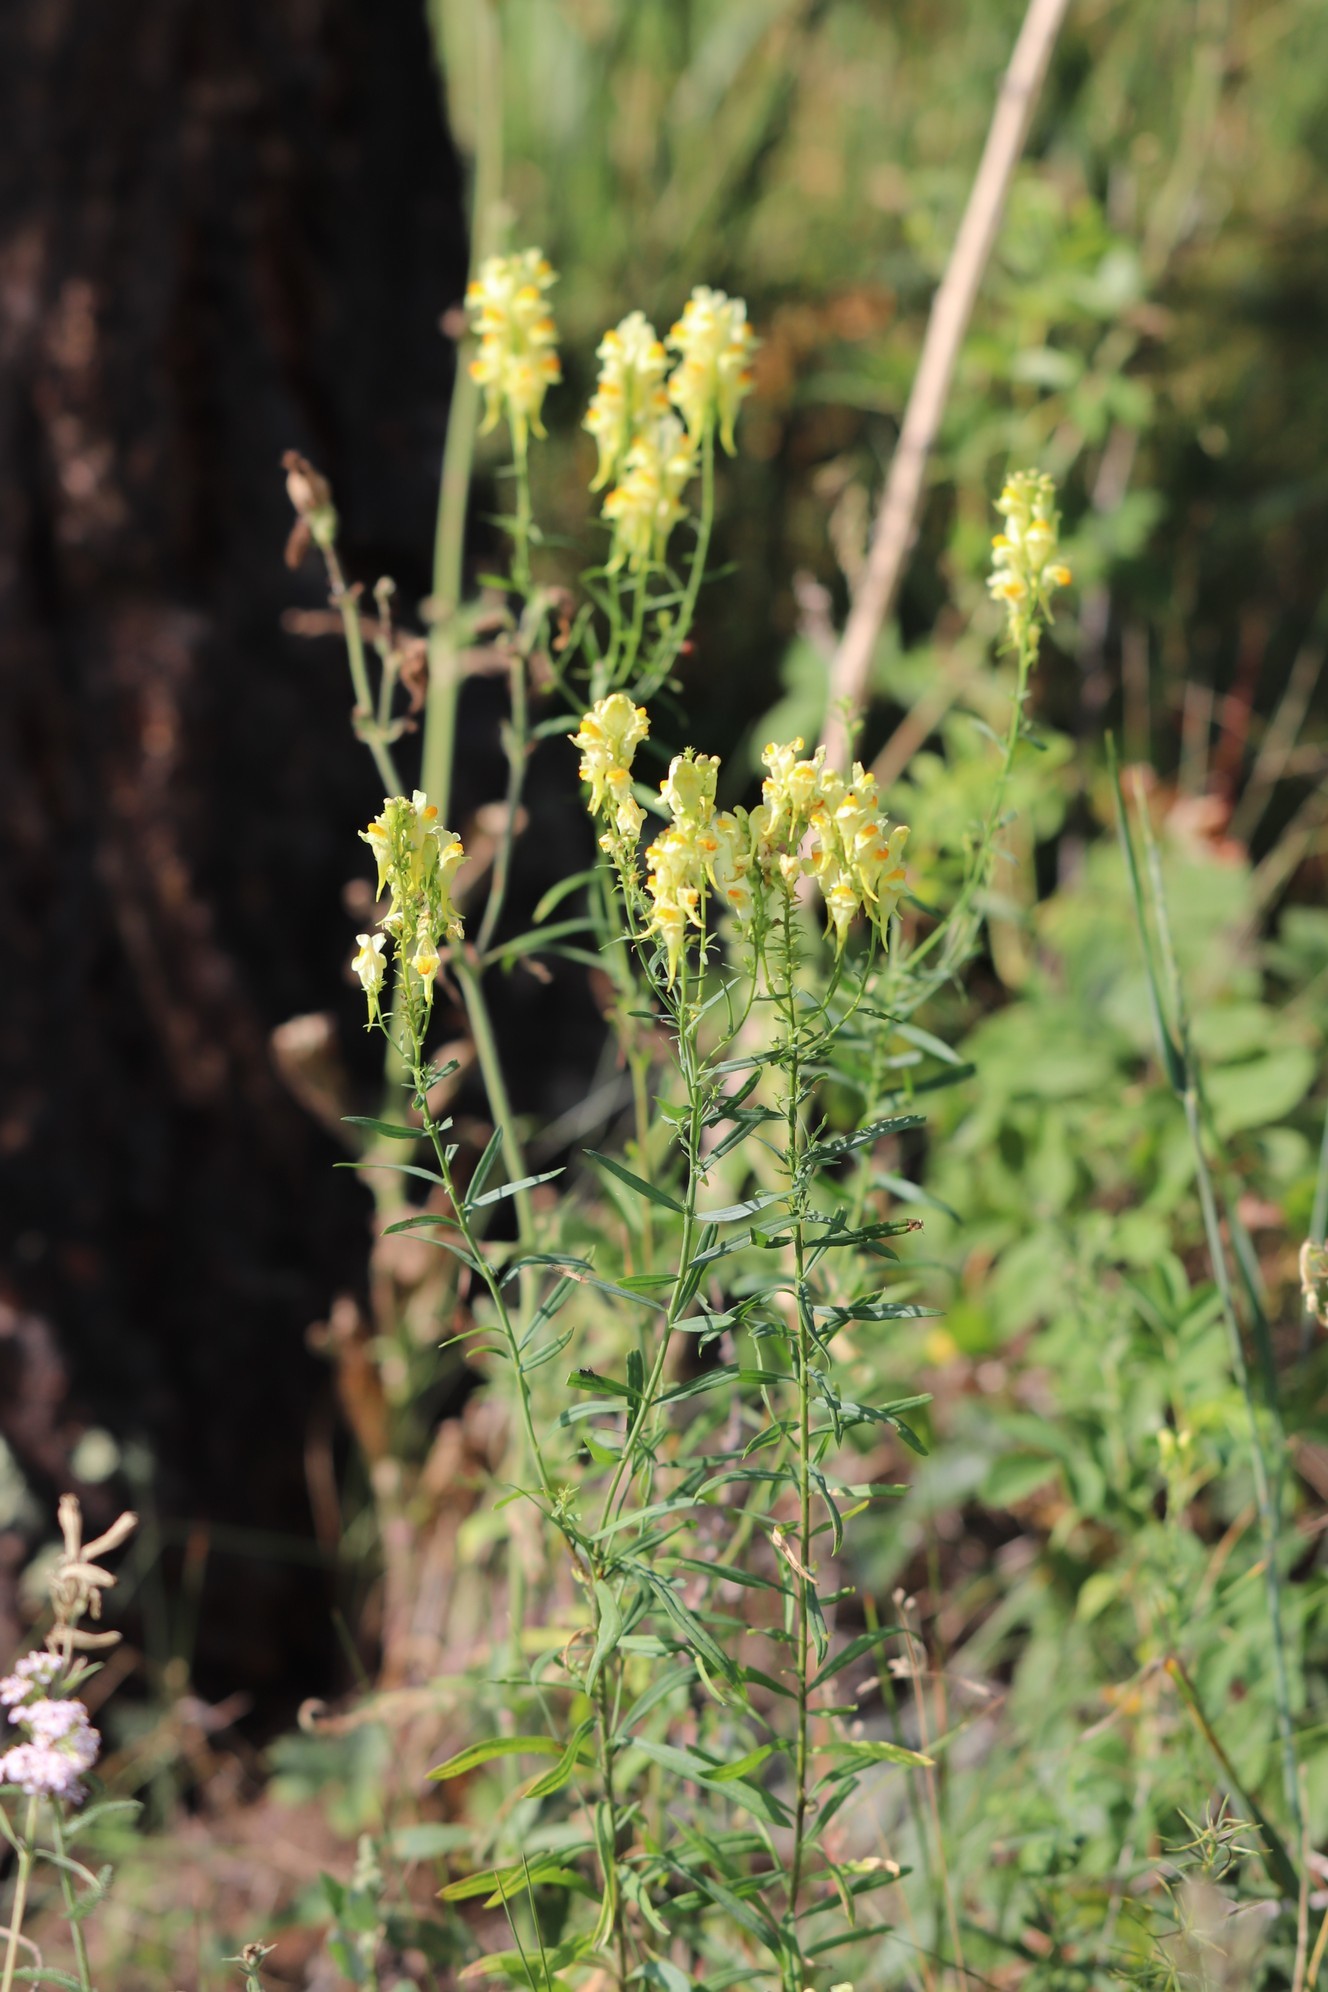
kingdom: Plantae
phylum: Tracheophyta
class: Magnoliopsida
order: Lamiales
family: Plantaginaceae
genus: Linaria
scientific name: Linaria vulgaris
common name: Butter and eggs
